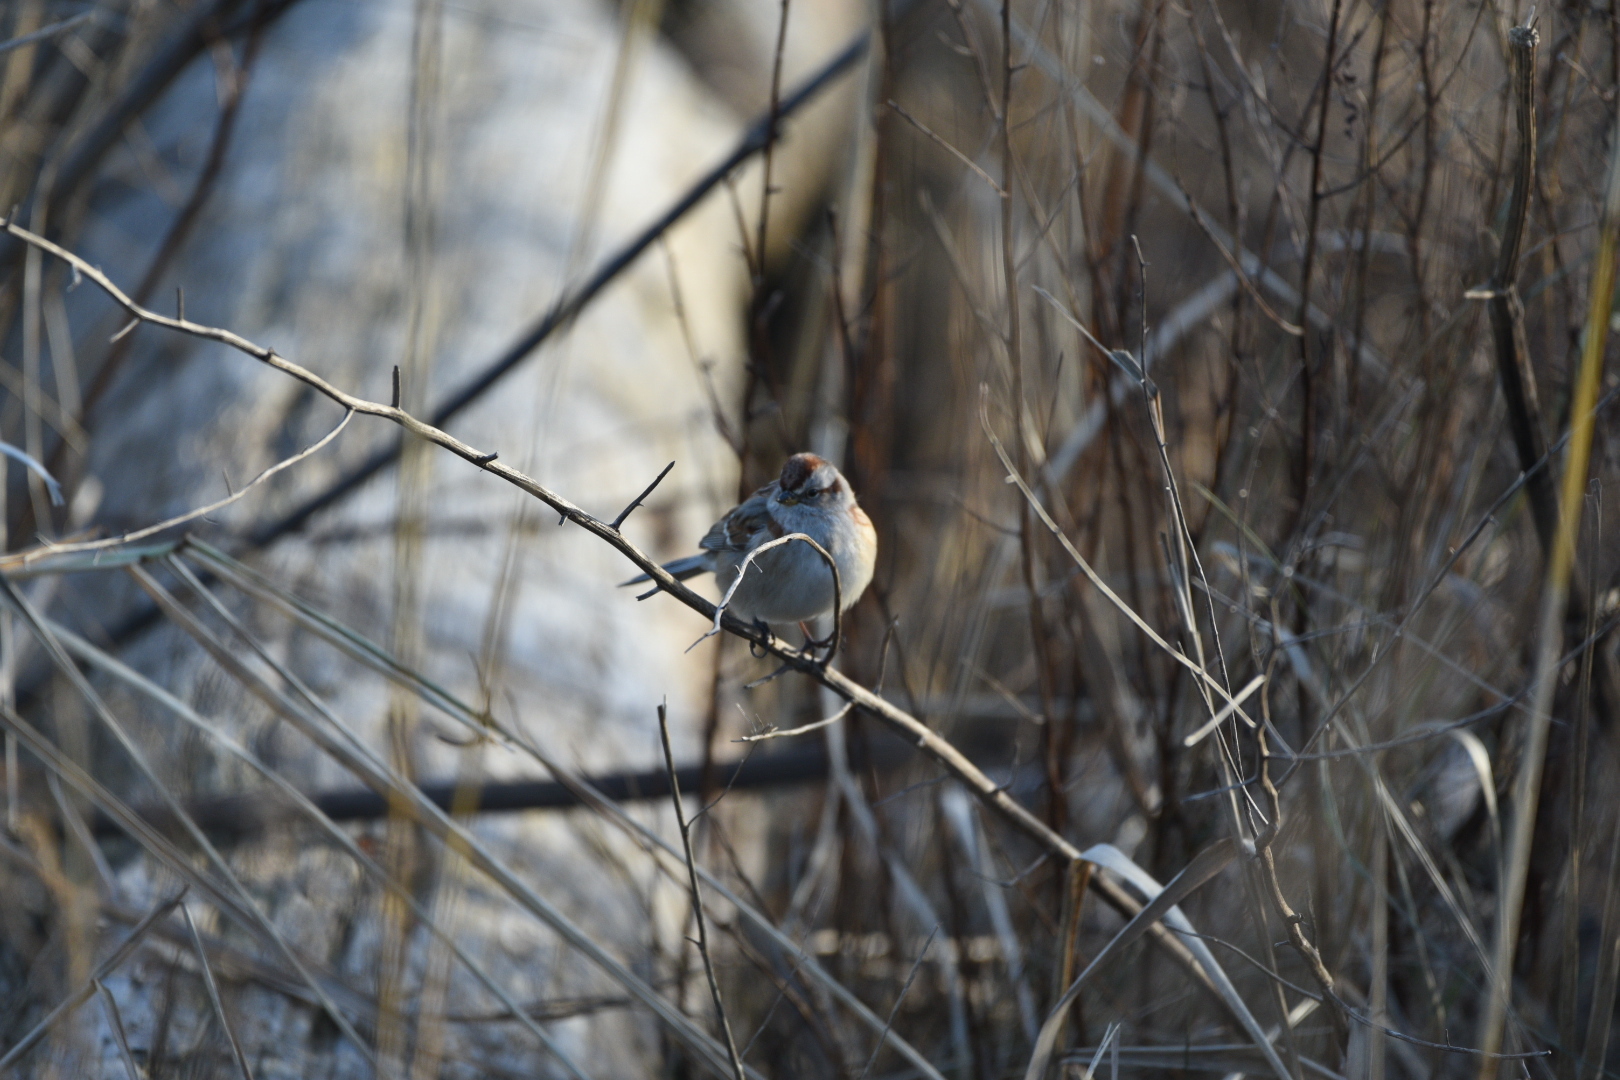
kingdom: Animalia
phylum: Chordata
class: Aves
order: Passeriformes
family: Passerellidae
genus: Spizelloides
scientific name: Spizelloides arborea
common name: American tree sparrow
